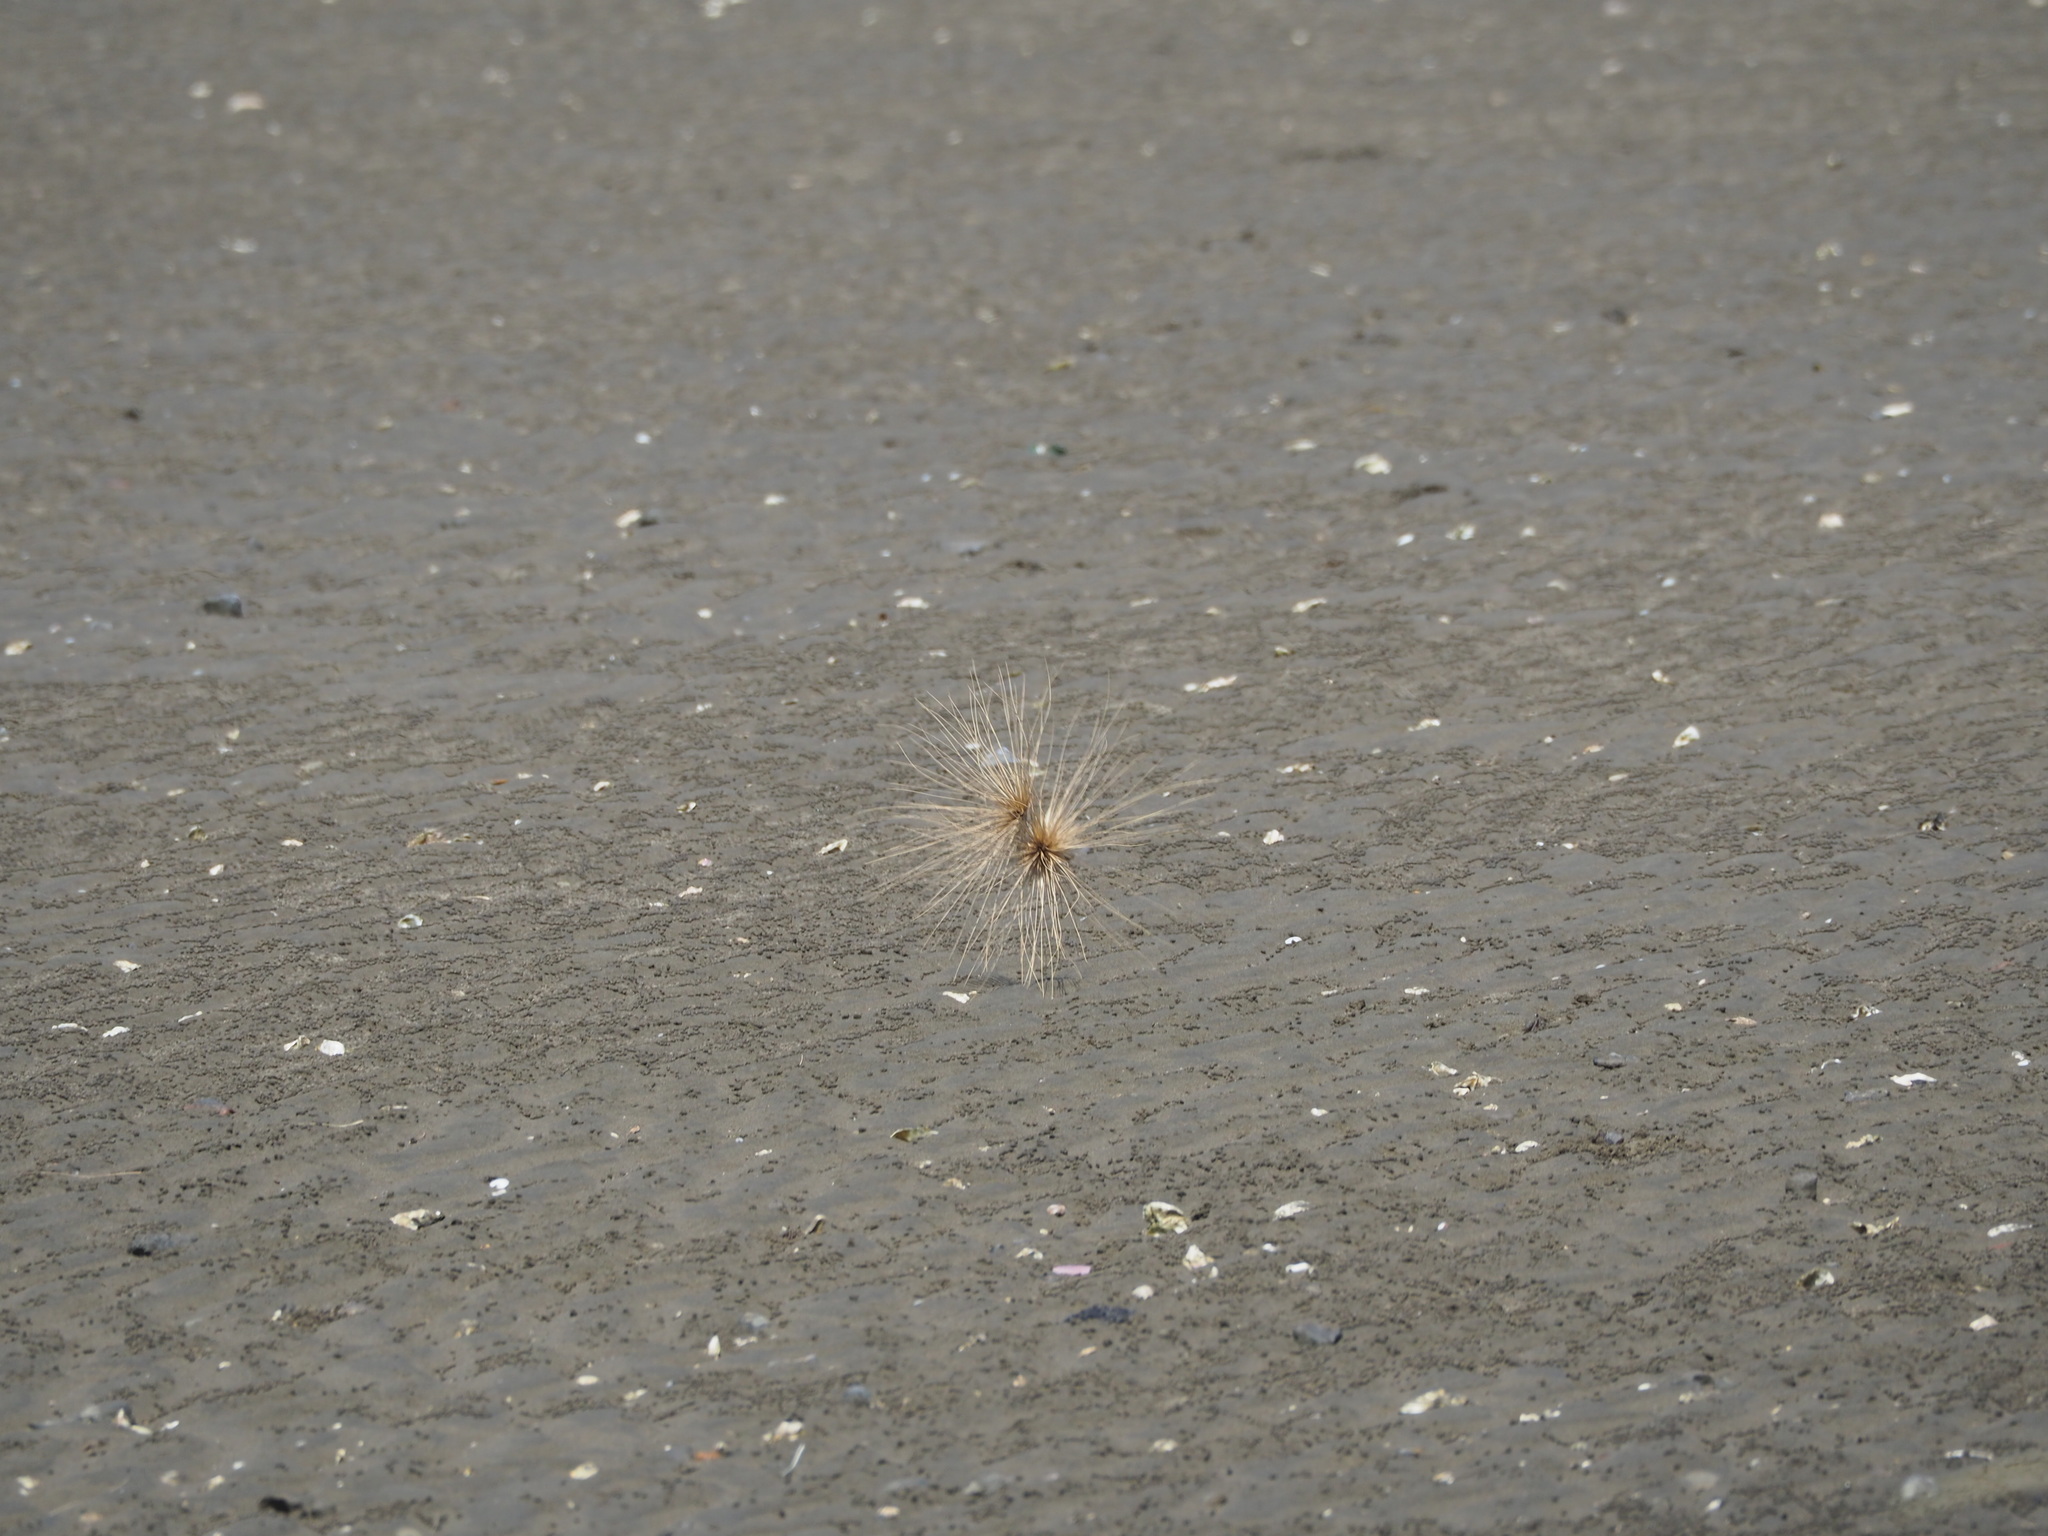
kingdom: Plantae
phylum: Tracheophyta
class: Liliopsida
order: Poales
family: Poaceae
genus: Spinifex
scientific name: Spinifex littoreus
